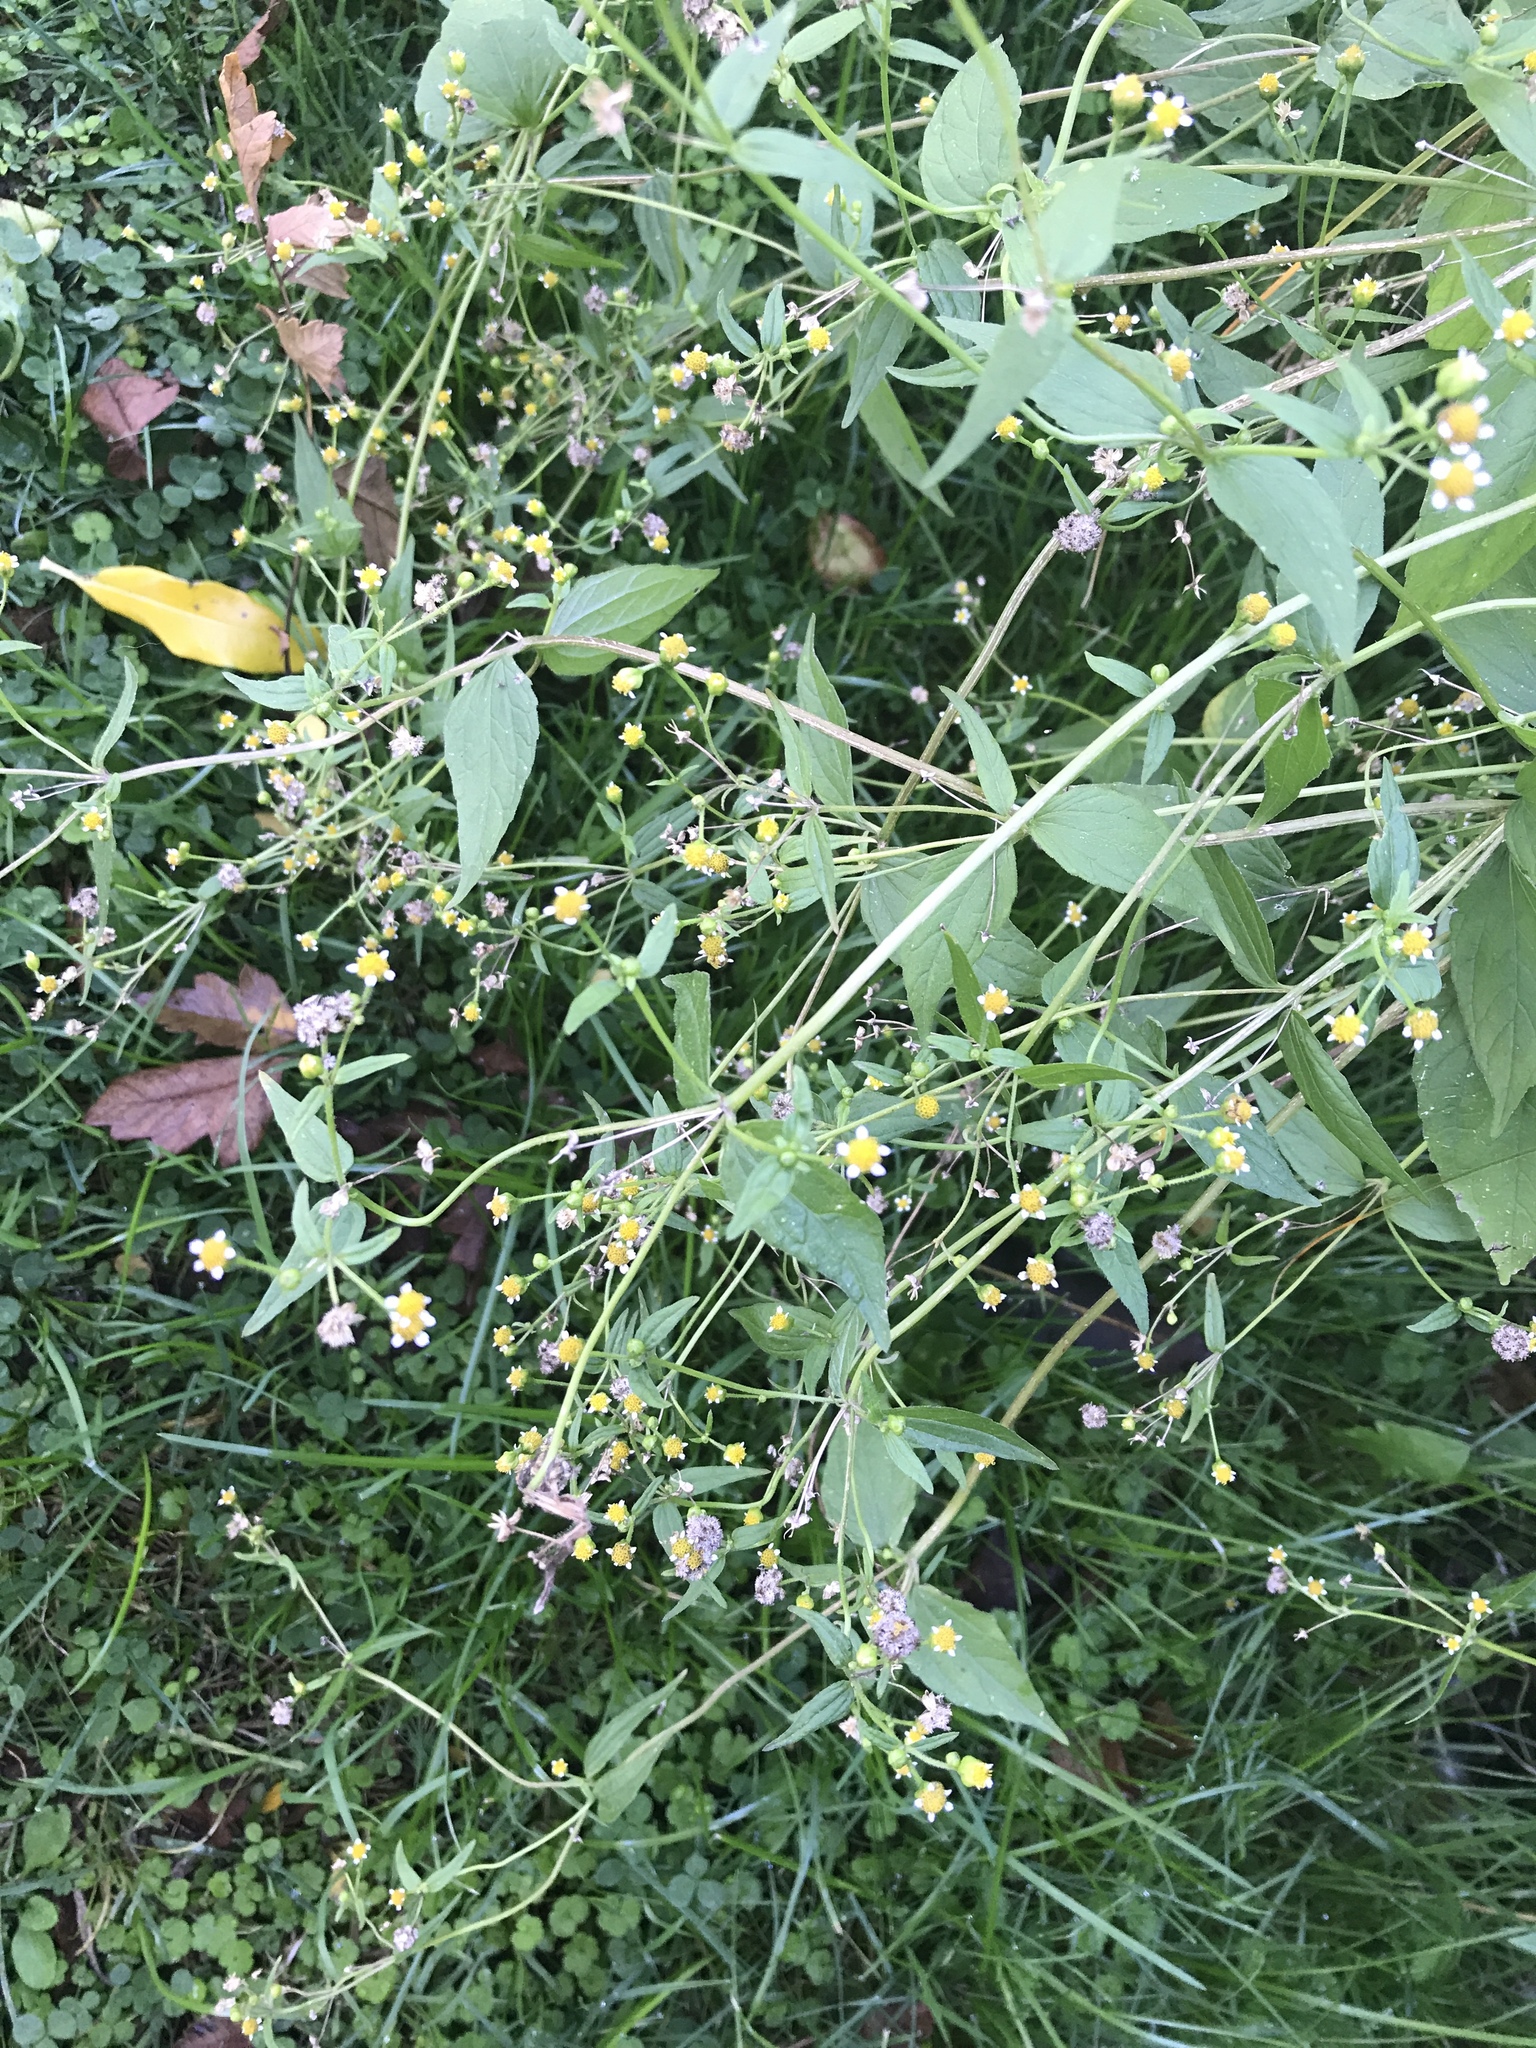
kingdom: Plantae
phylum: Tracheophyta
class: Magnoliopsida
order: Asterales
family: Asteraceae
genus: Galinsoga
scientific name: Galinsoga parviflora
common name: Gallant soldier
